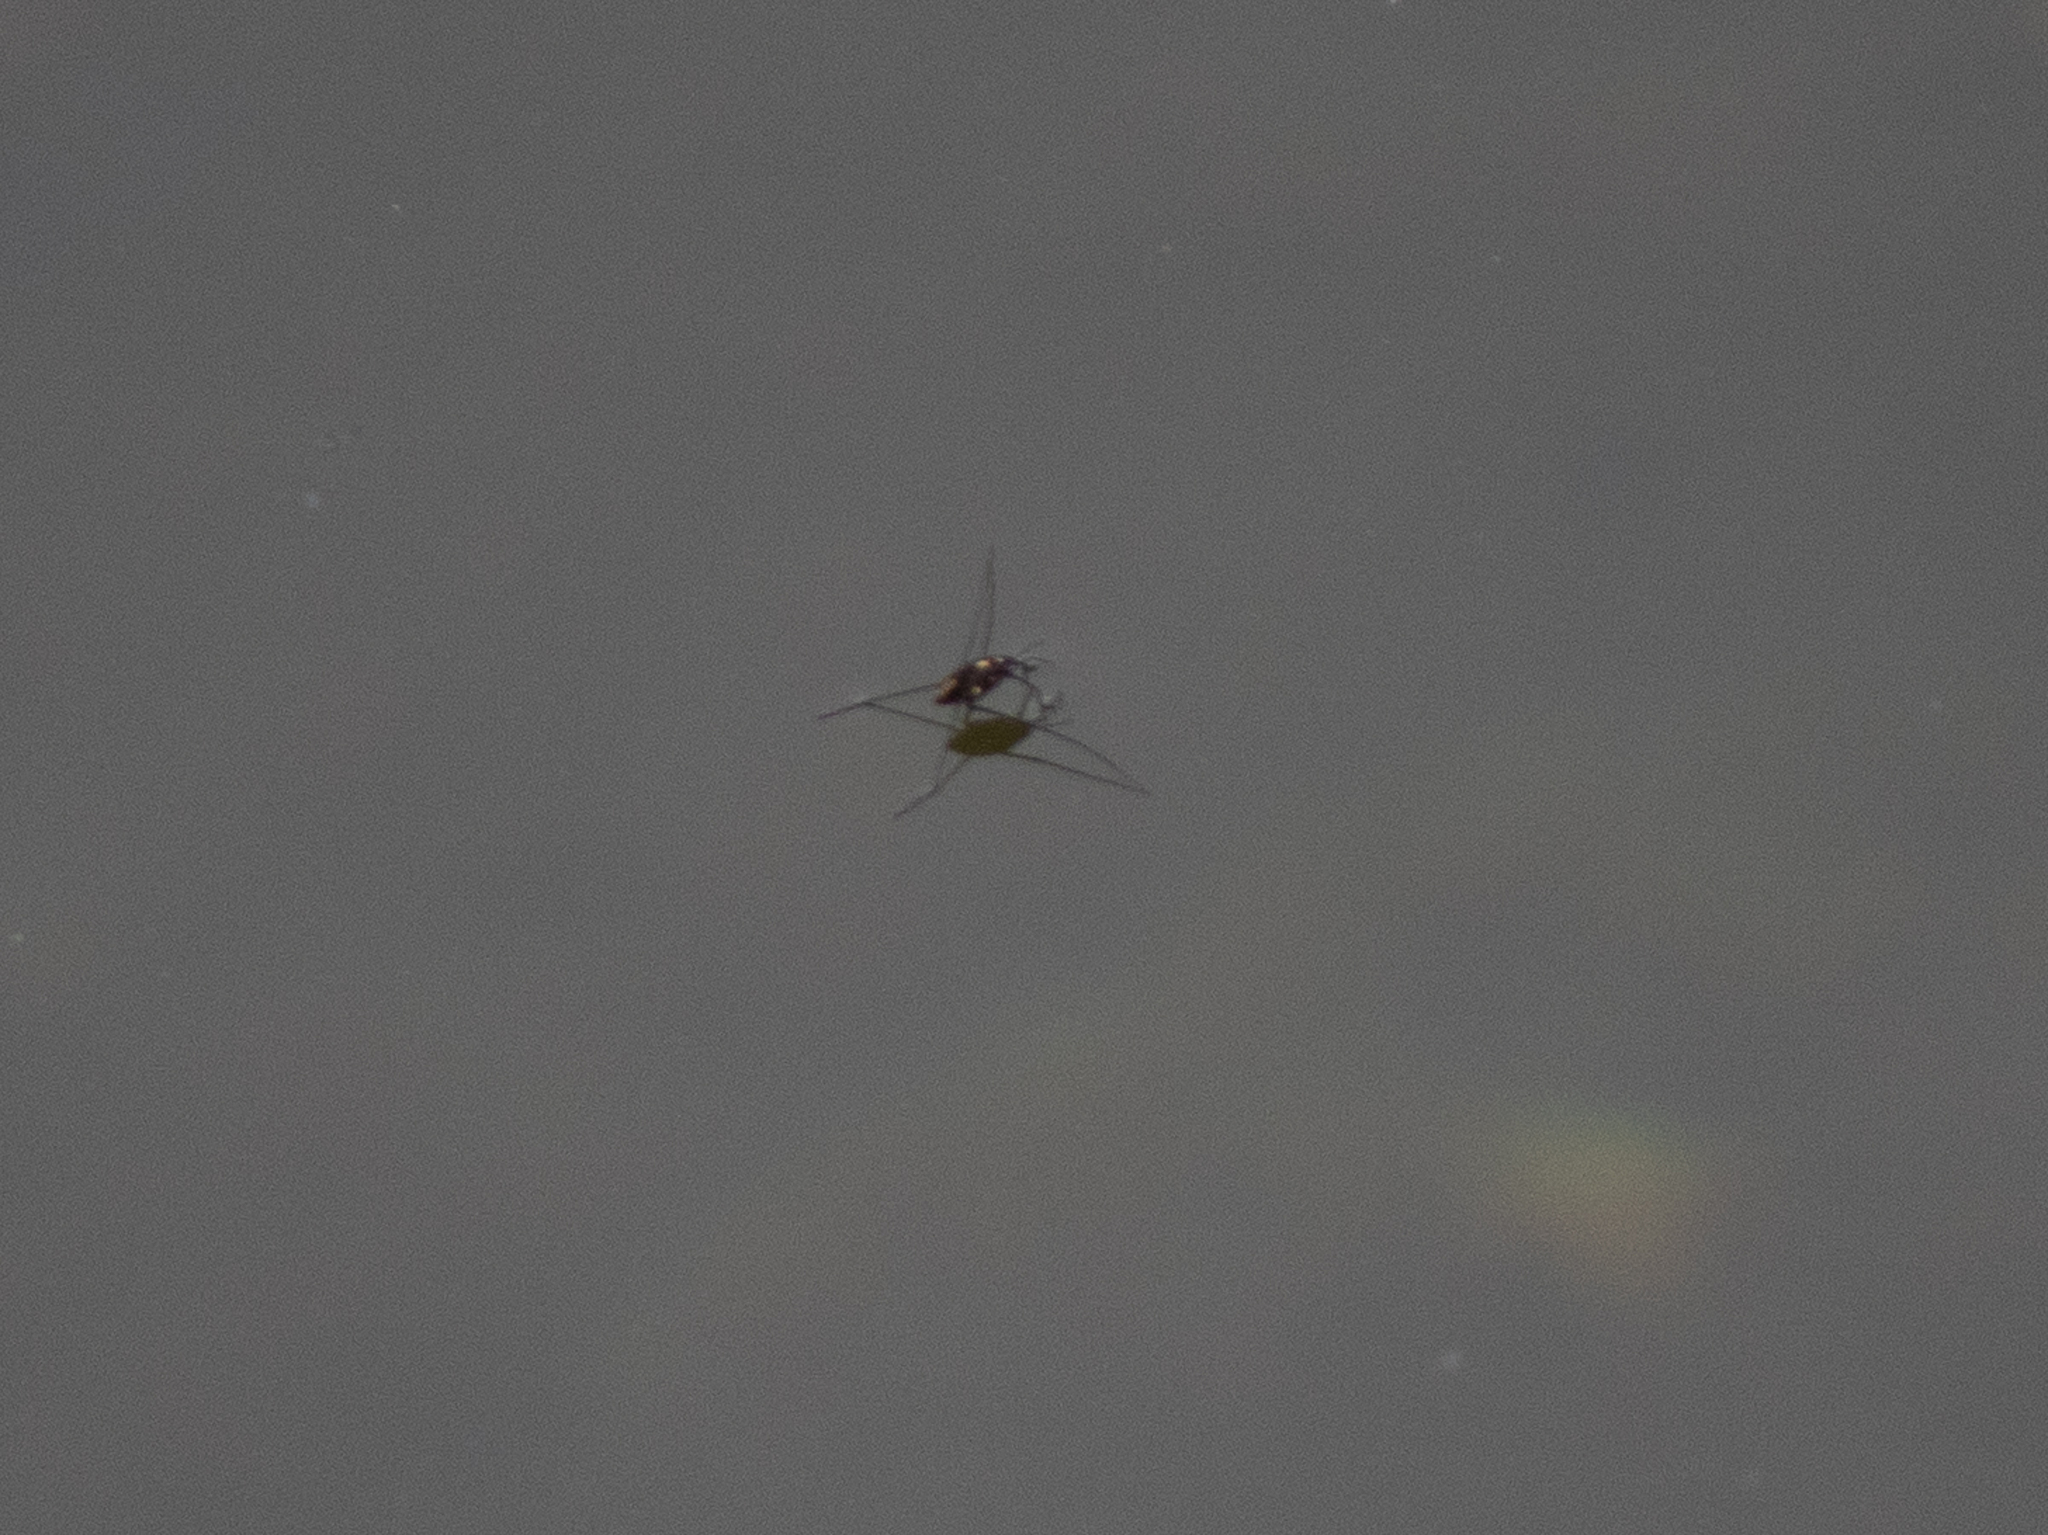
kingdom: Animalia
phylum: Arthropoda
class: Insecta
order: Hemiptera
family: Gerridae
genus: Metrobates
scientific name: Metrobates hesperius
